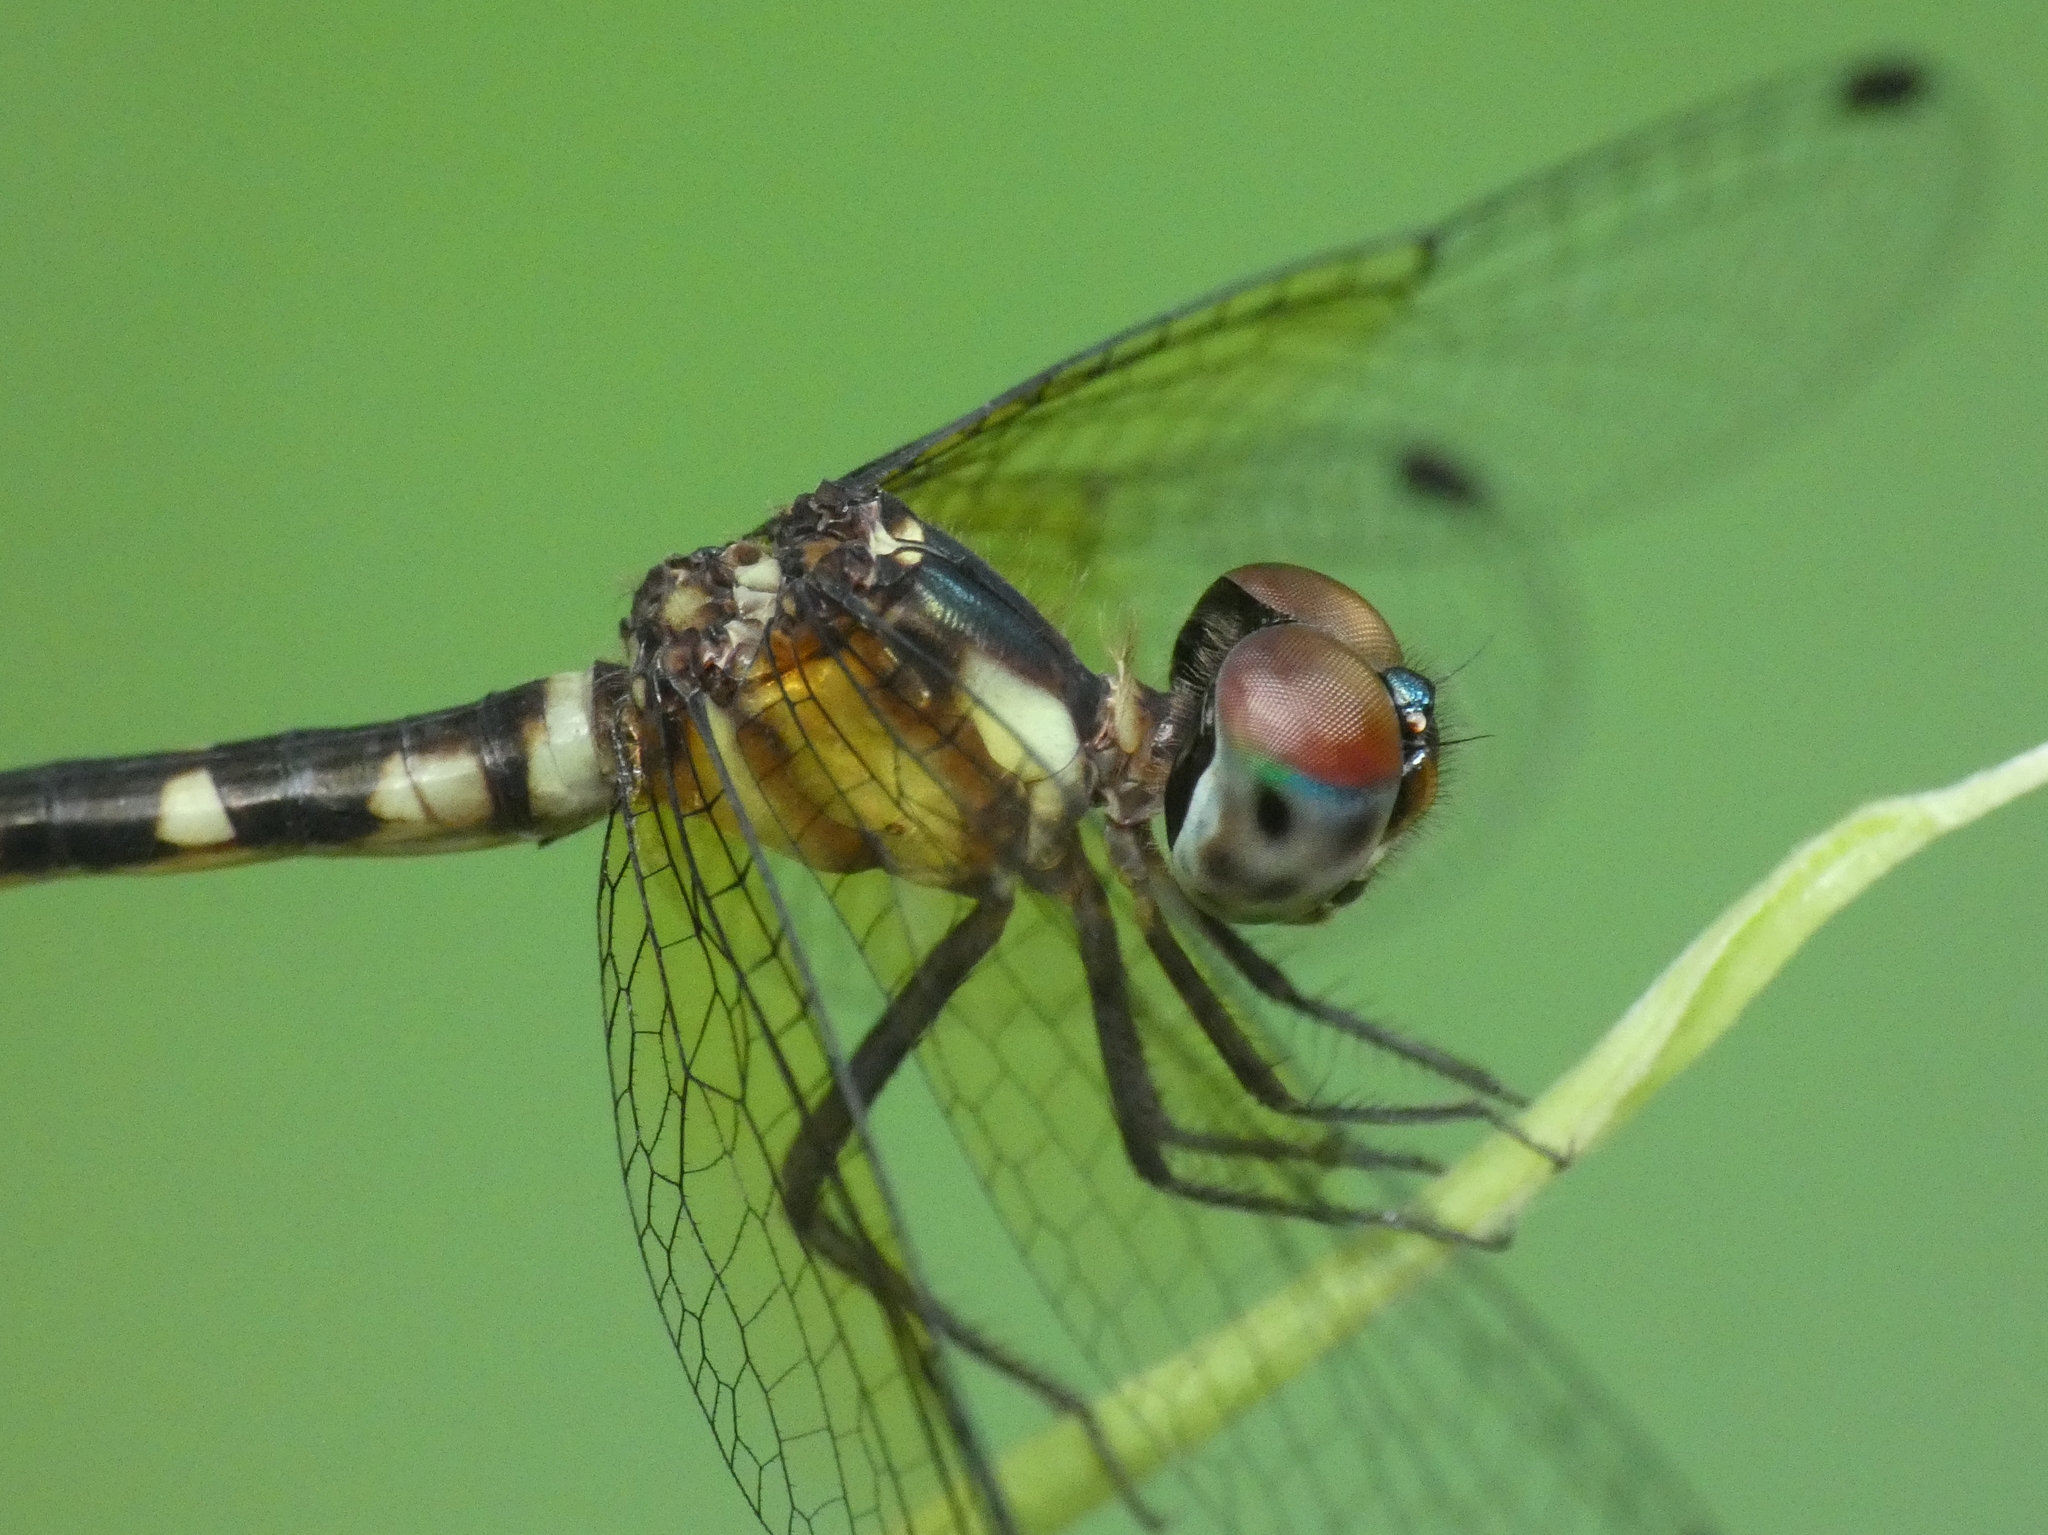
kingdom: Animalia
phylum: Arthropoda
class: Insecta
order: Odonata
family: Libellulidae
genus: Tetrathemis
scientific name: Tetrathemis irregularis
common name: Elf
